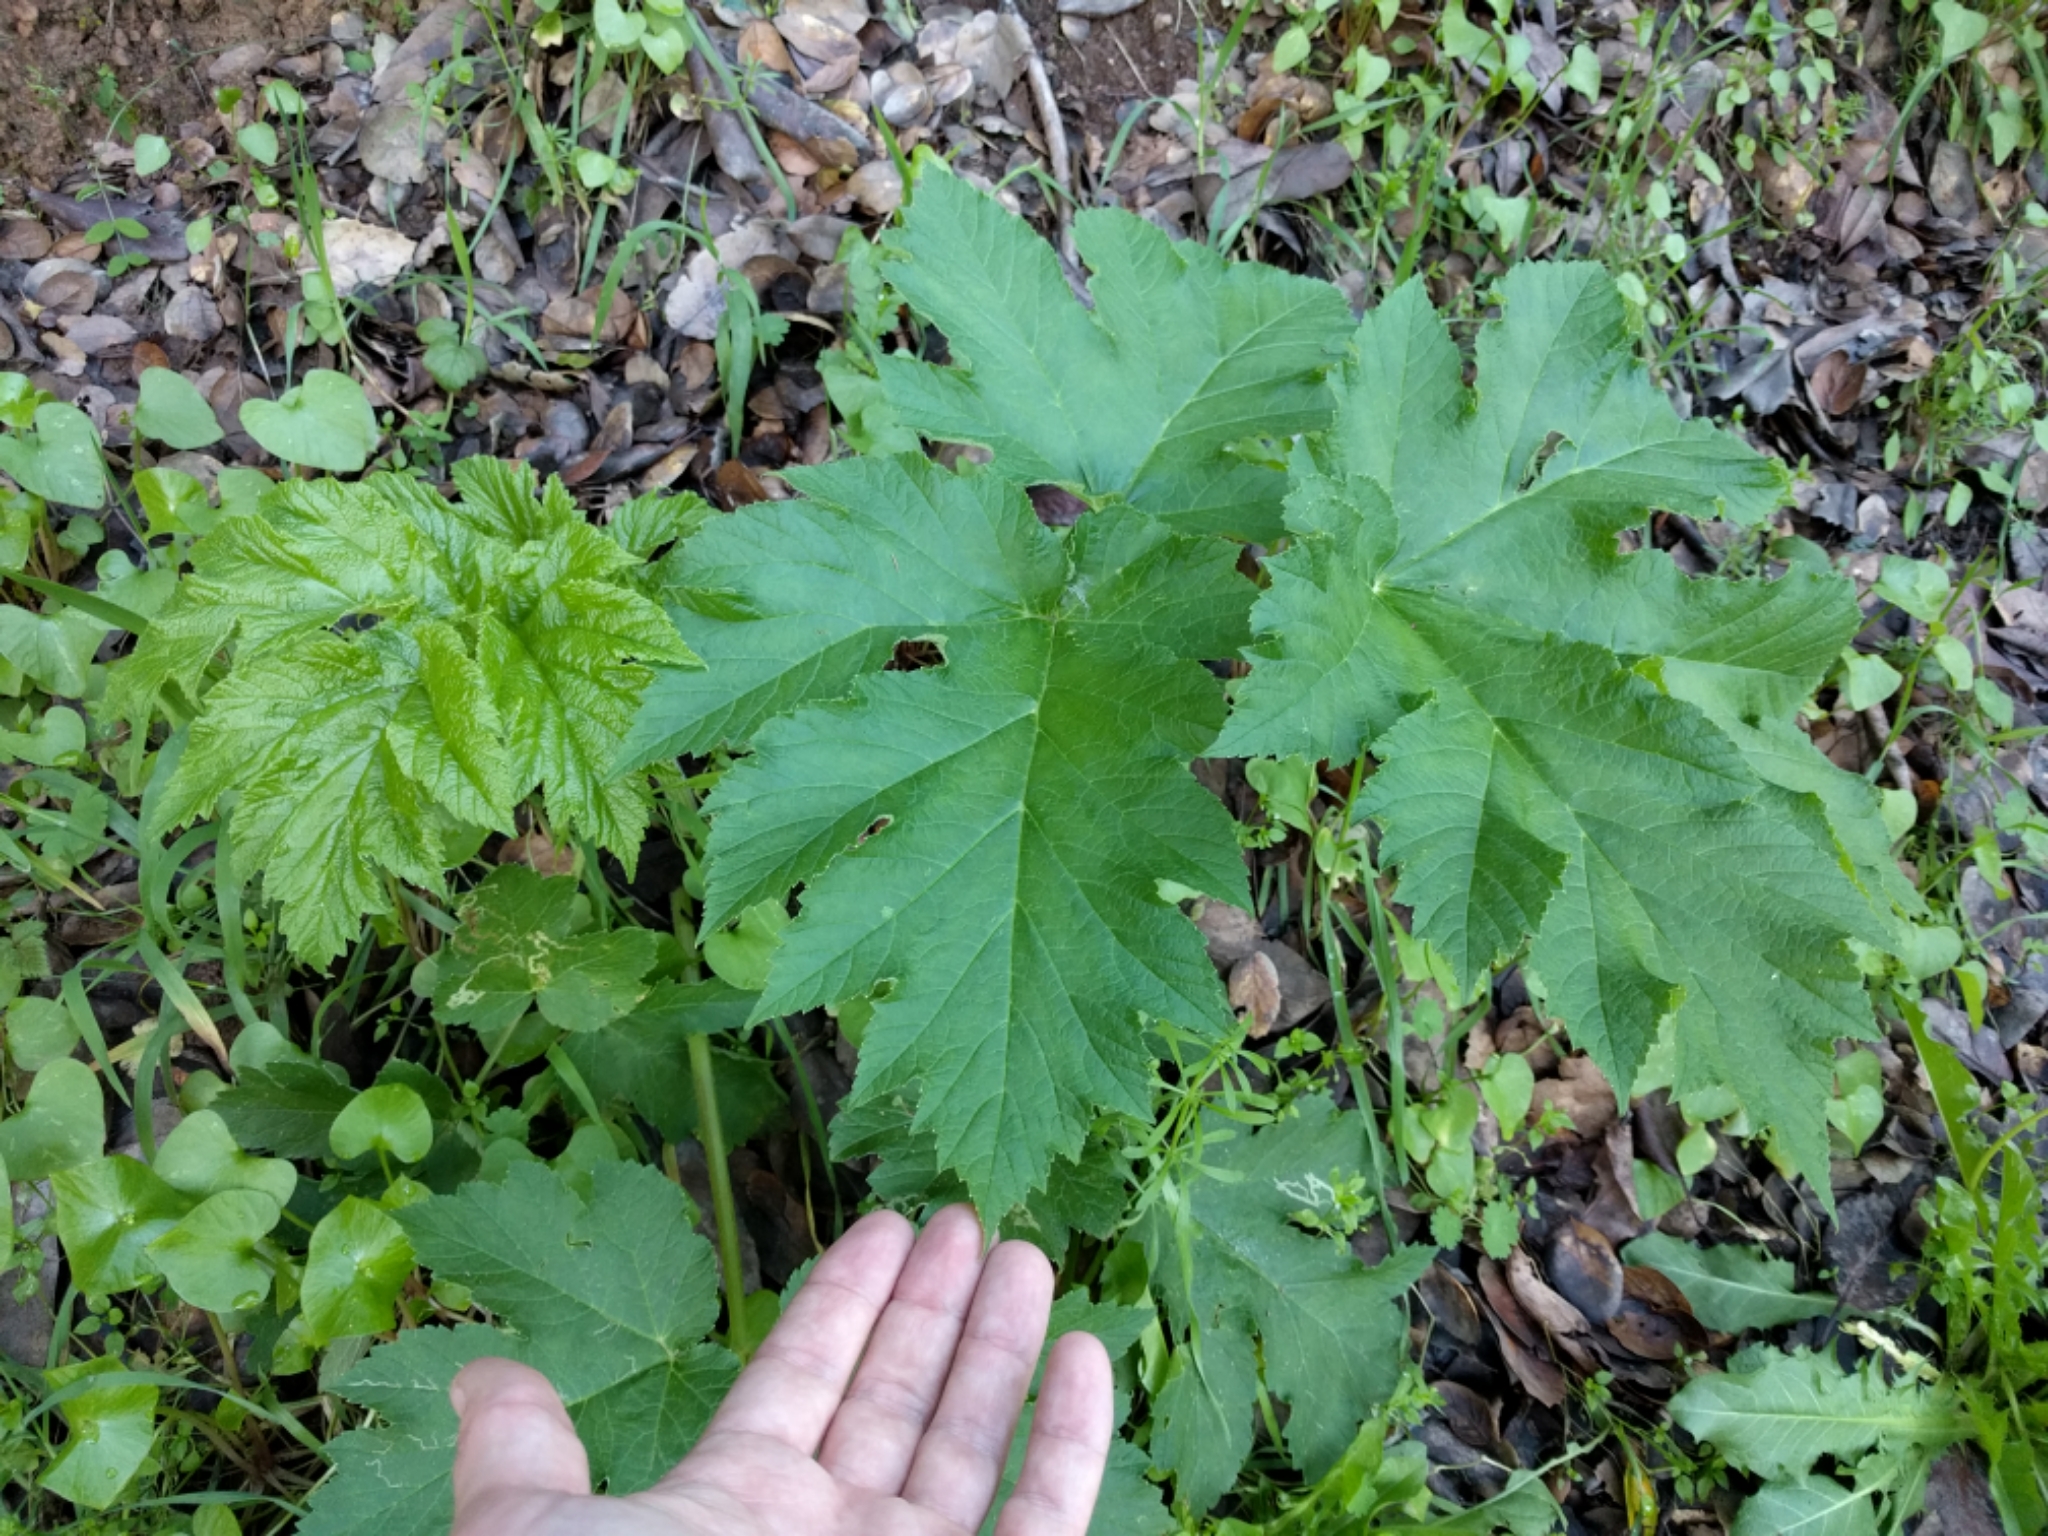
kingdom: Plantae
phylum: Tracheophyta
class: Magnoliopsida
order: Apiales
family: Apiaceae
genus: Heracleum
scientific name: Heracleum maximum
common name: American cow parsnip
